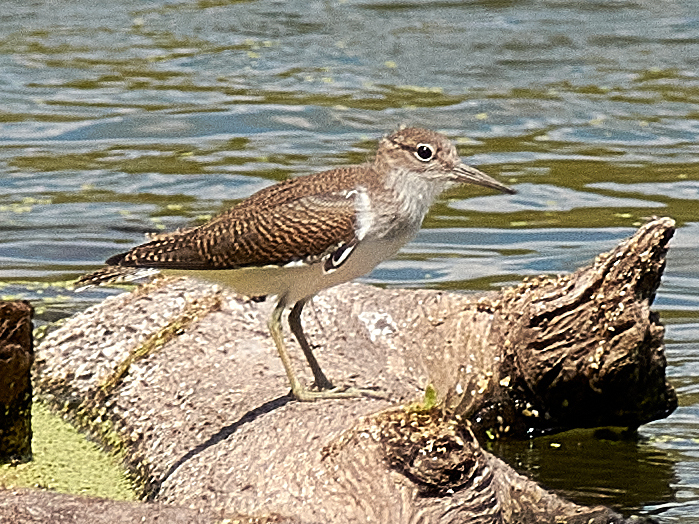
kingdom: Animalia
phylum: Chordata
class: Aves
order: Charadriiformes
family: Scolopacidae
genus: Actitis
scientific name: Actitis hypoleucos
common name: Common sandpiper
